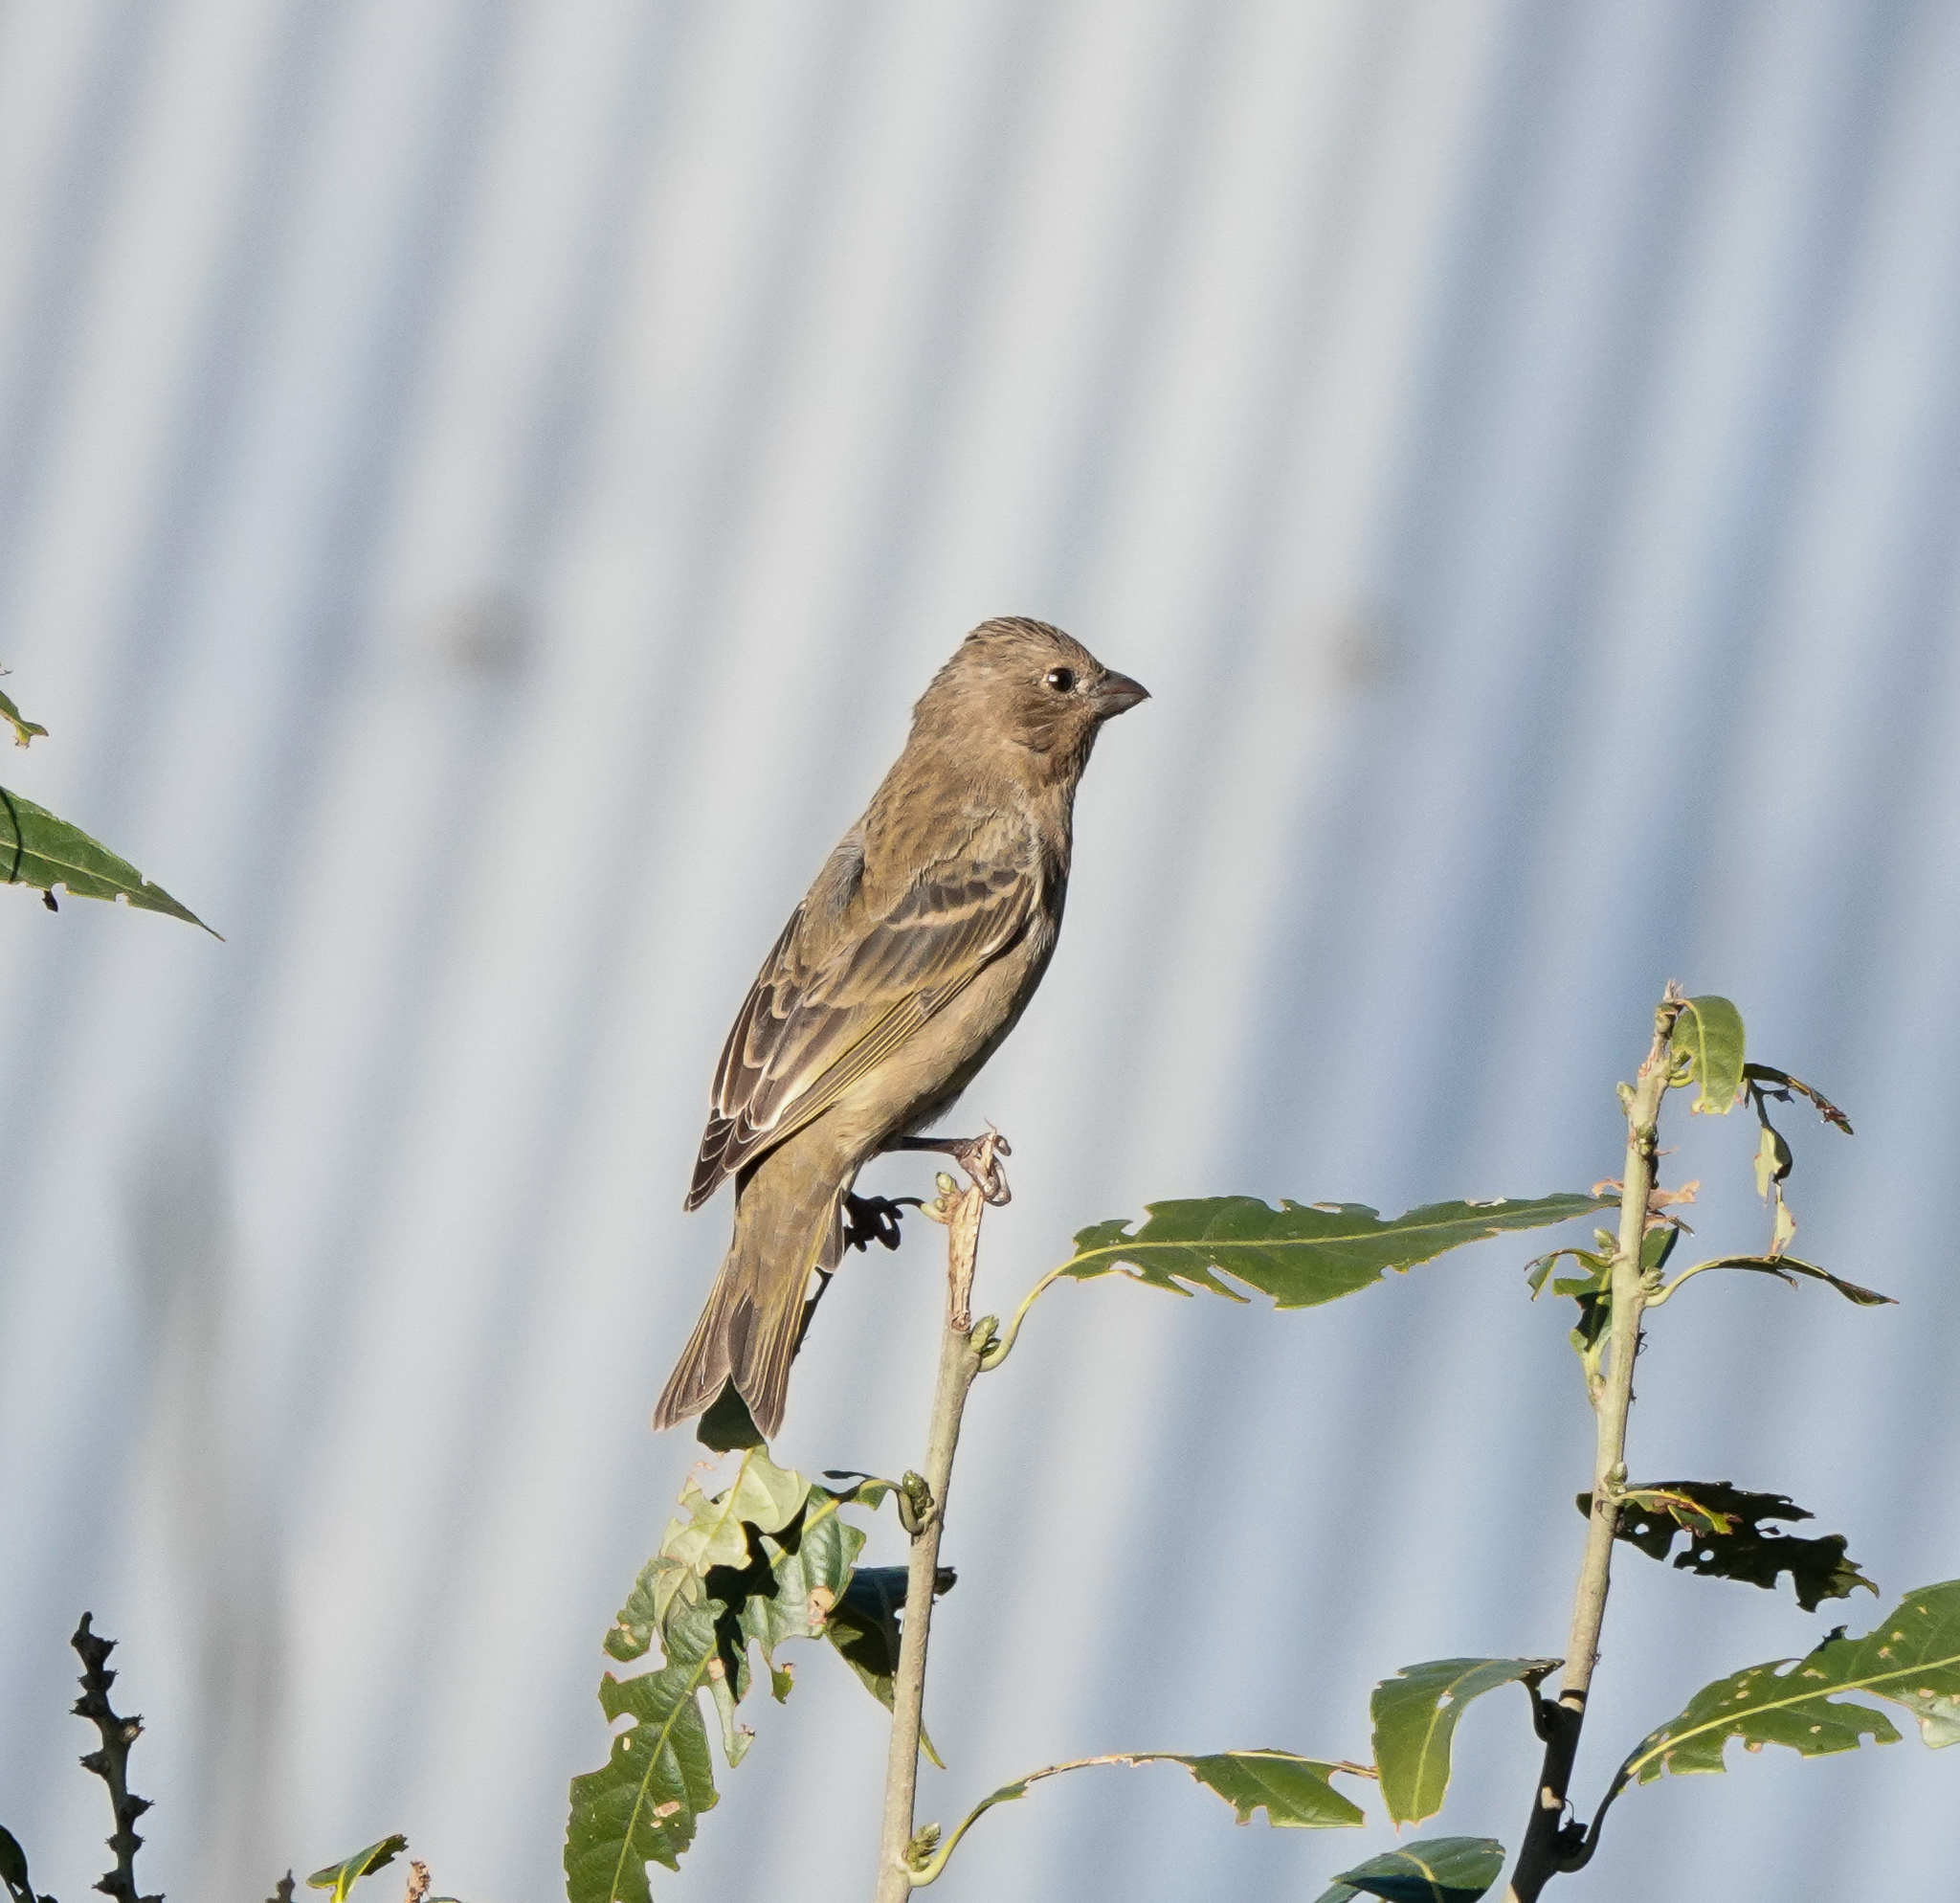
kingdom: Animalia
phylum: Chordata
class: Aves
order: Passeriformes
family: Fringillidae
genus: Carpodacus
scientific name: Carpodacus erythrinus
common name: Common rosefinch
